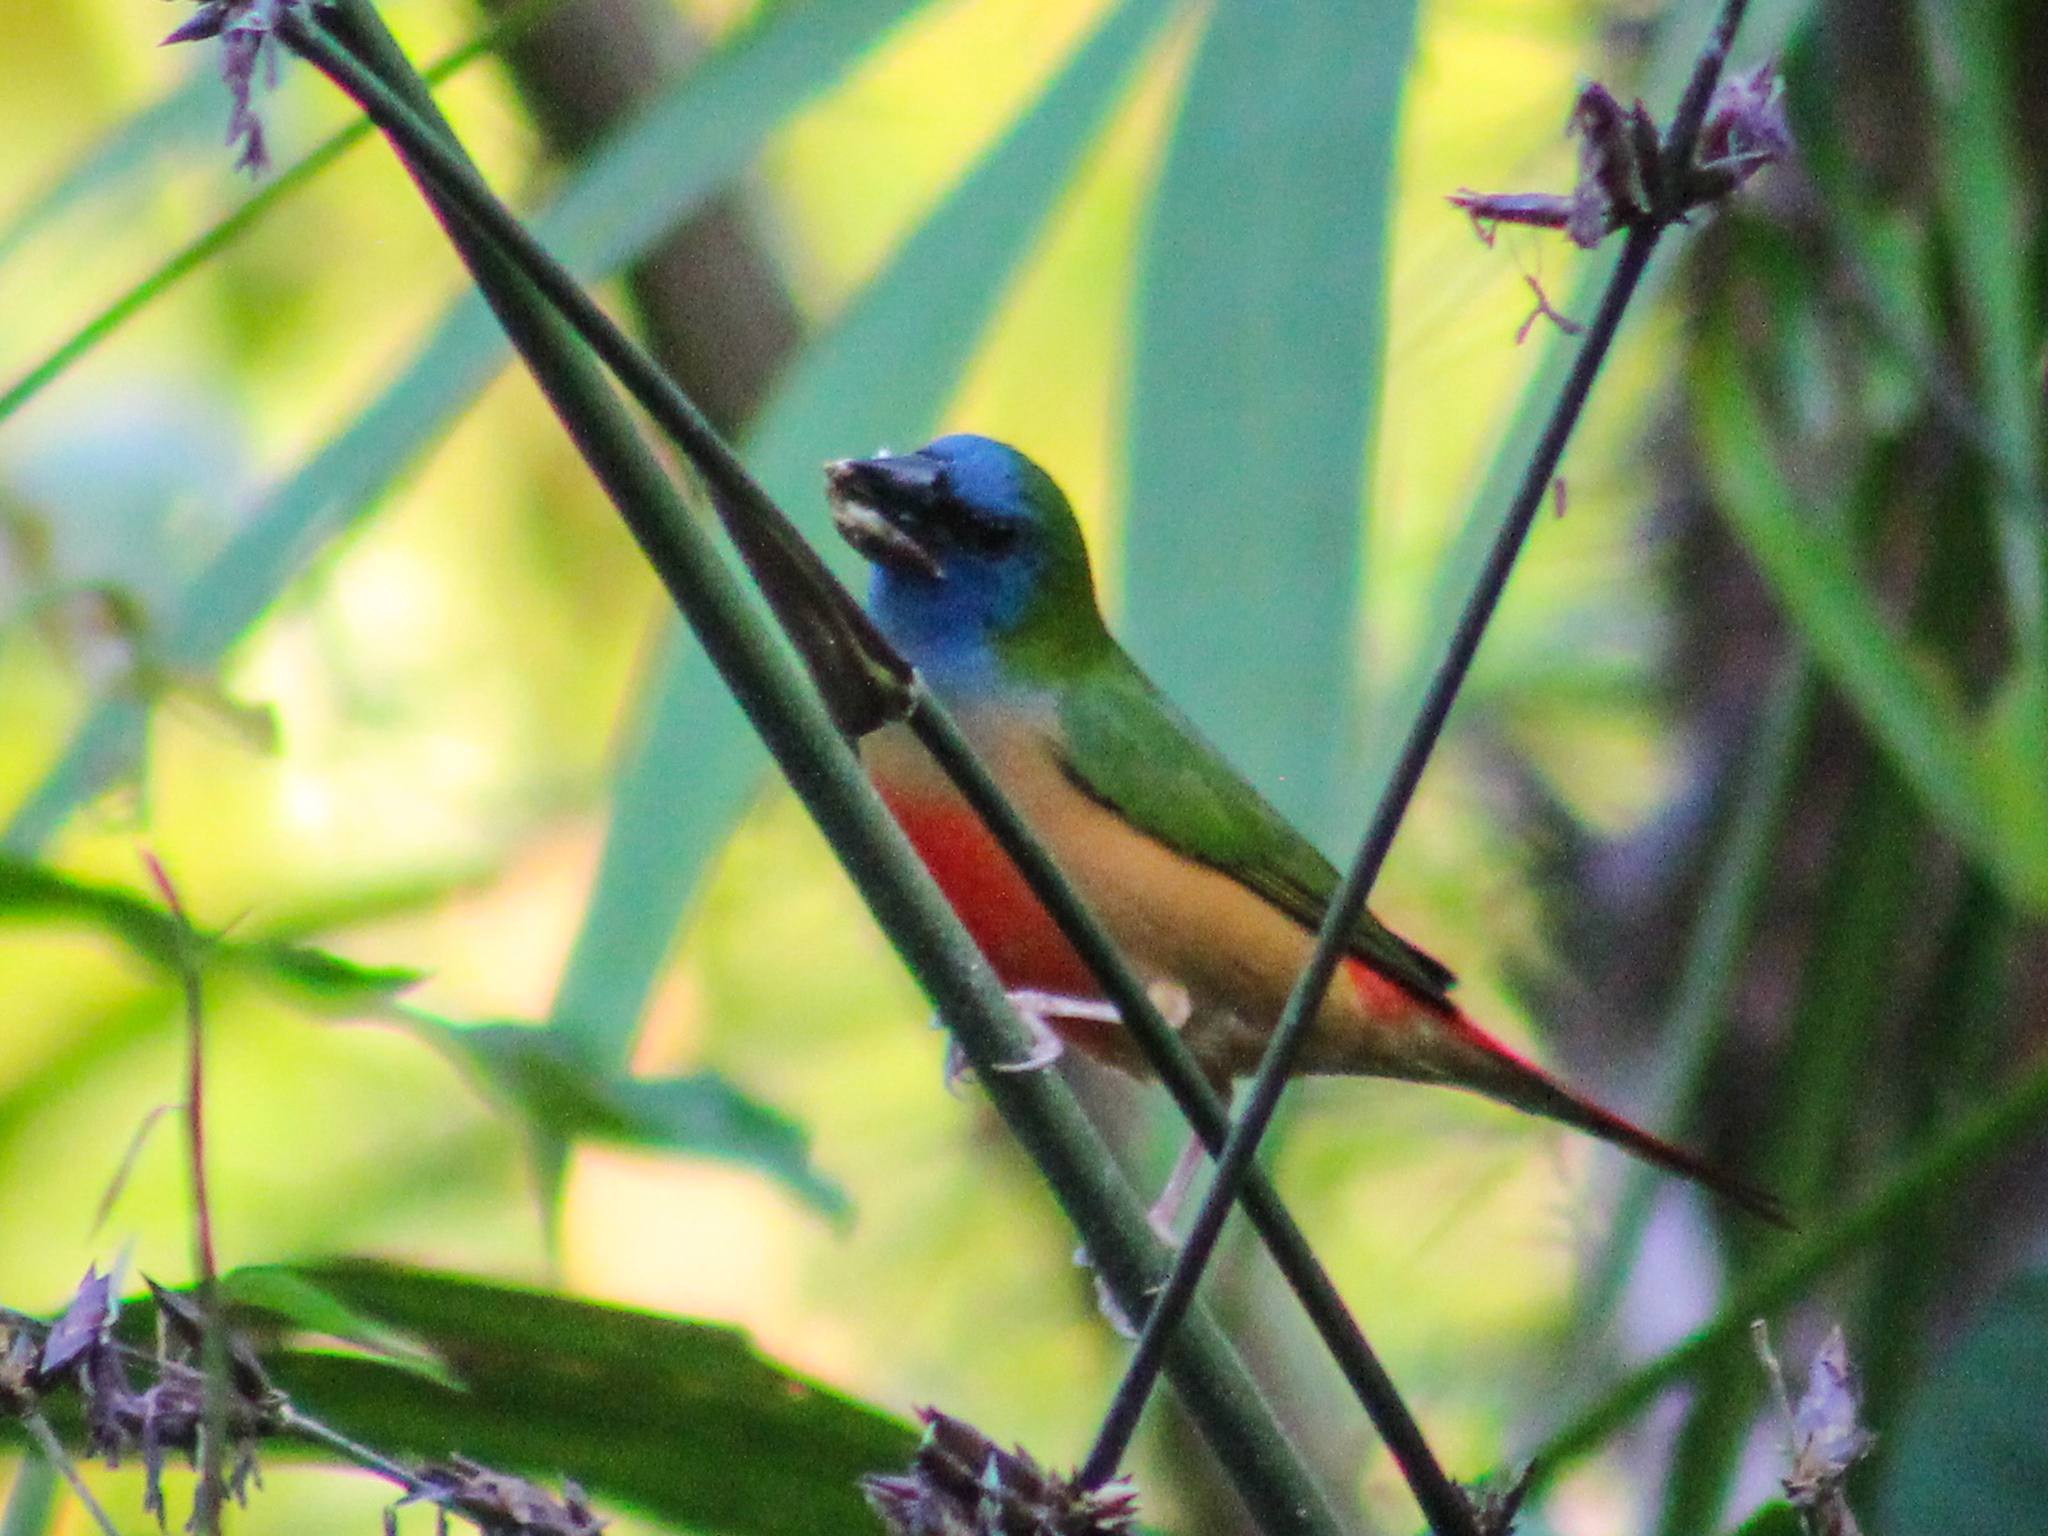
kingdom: Animalia
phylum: Chordata
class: Aves
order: Passeriformes
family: Estrildidae
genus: Erythrura
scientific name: Erythrura prasina
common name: Pin-tailed parrotfinch
